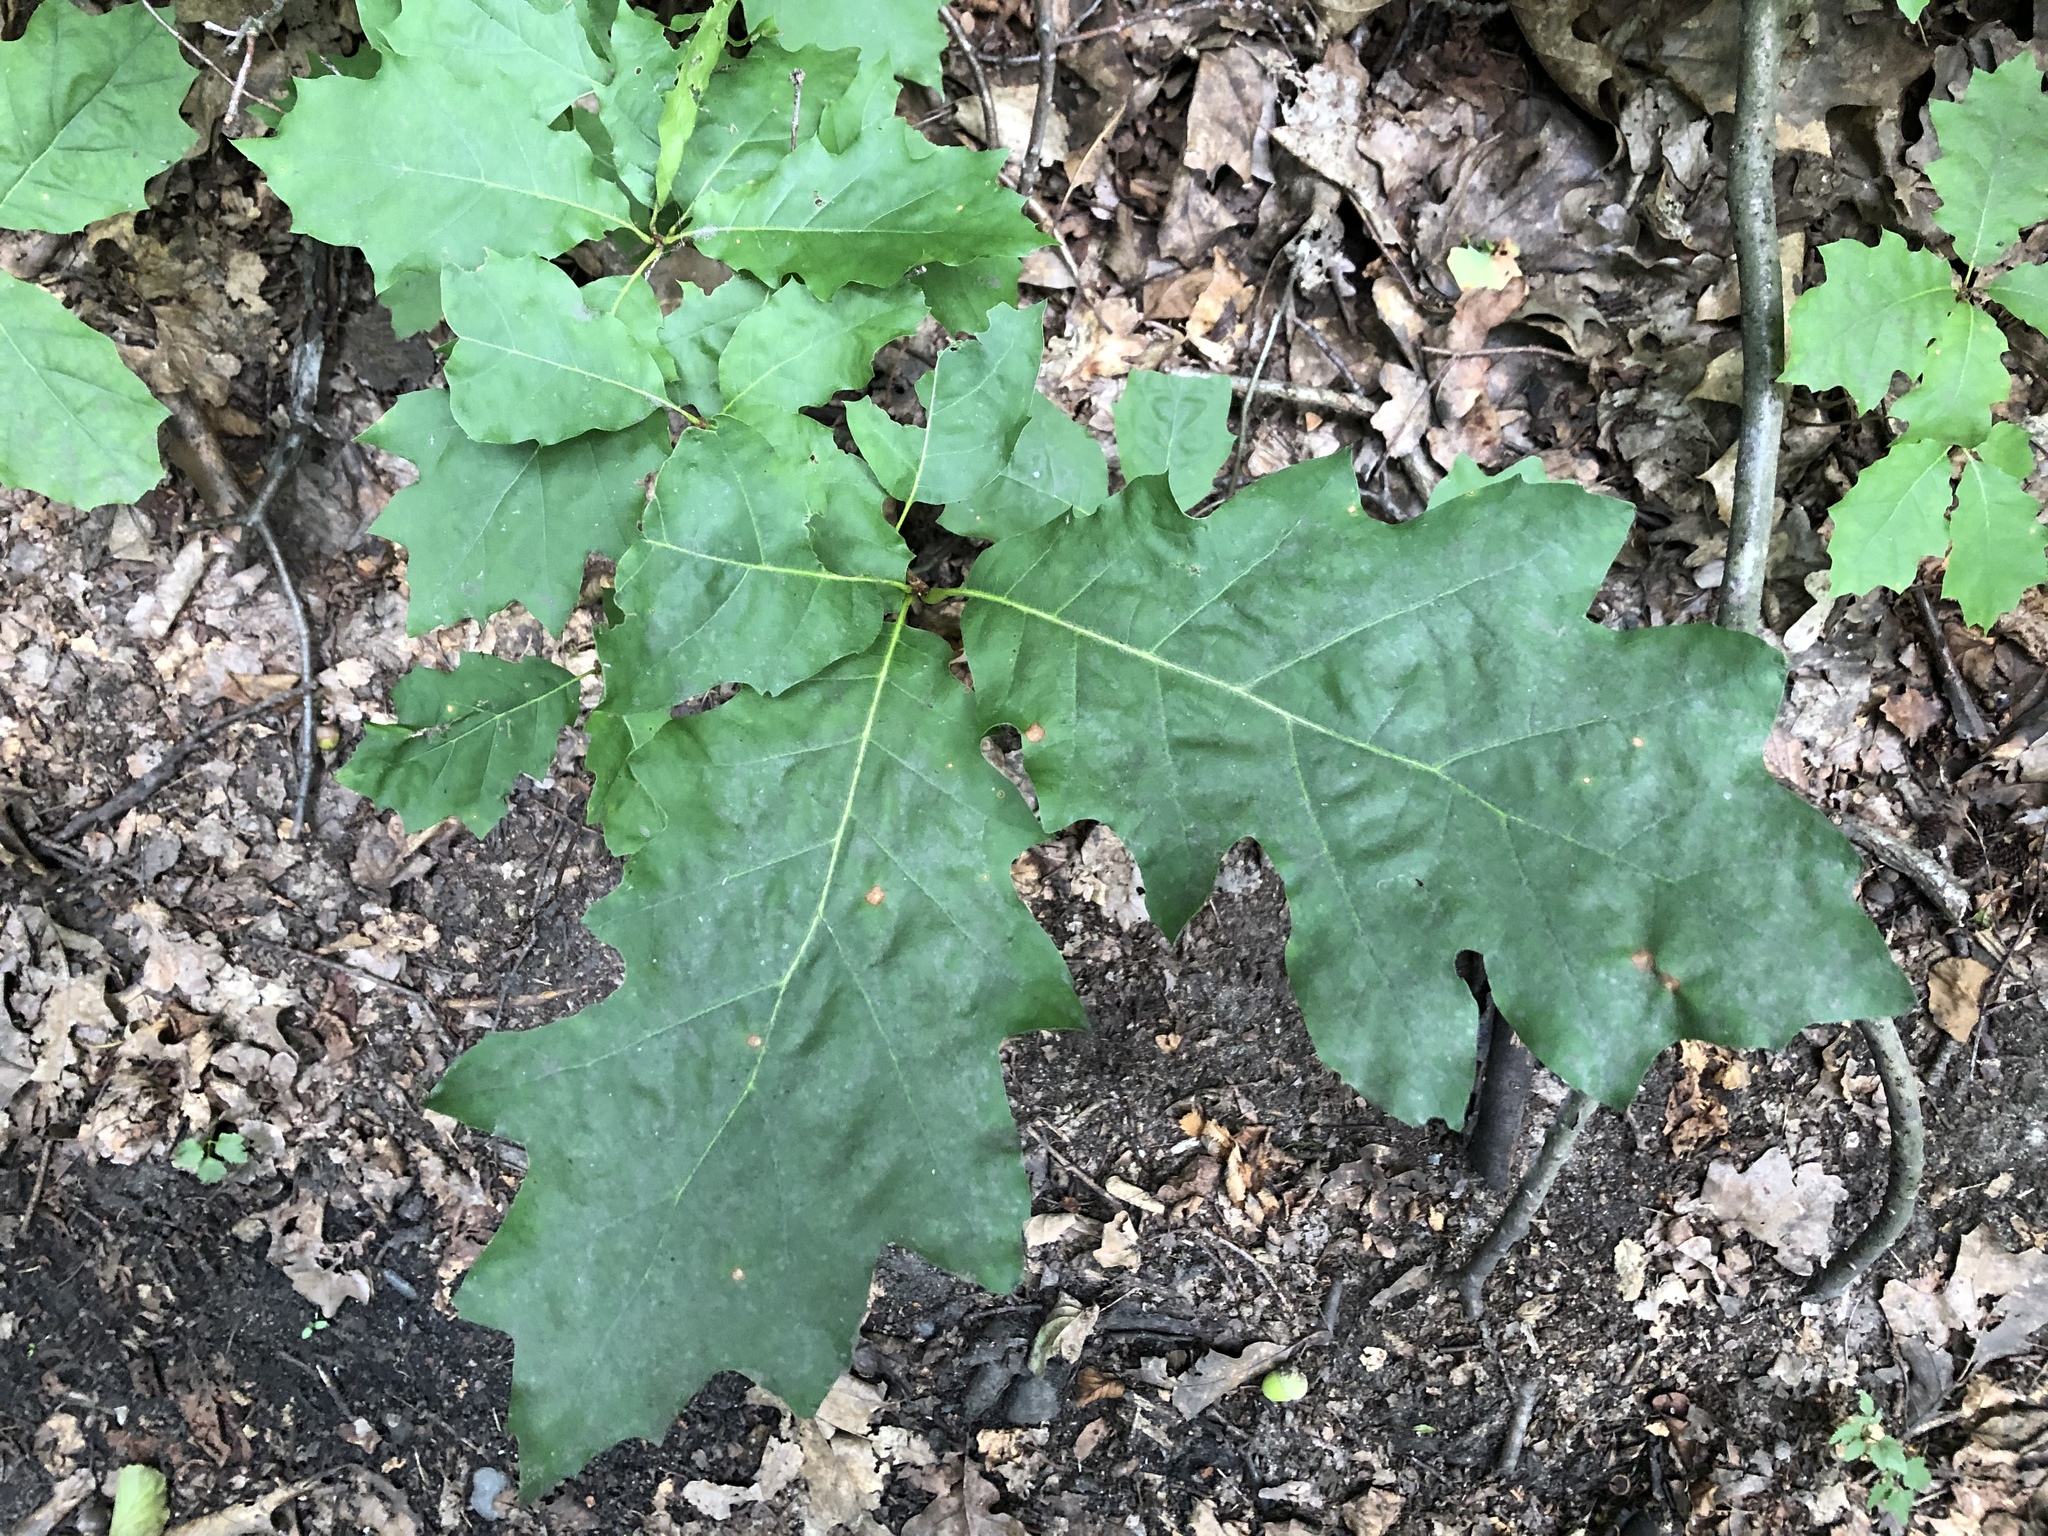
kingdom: Plantae
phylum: Tracheophyta
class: Magnoliopsida
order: Fagales
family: Fagaceae
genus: Quercus
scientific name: Quercus rubra
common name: Red oak
